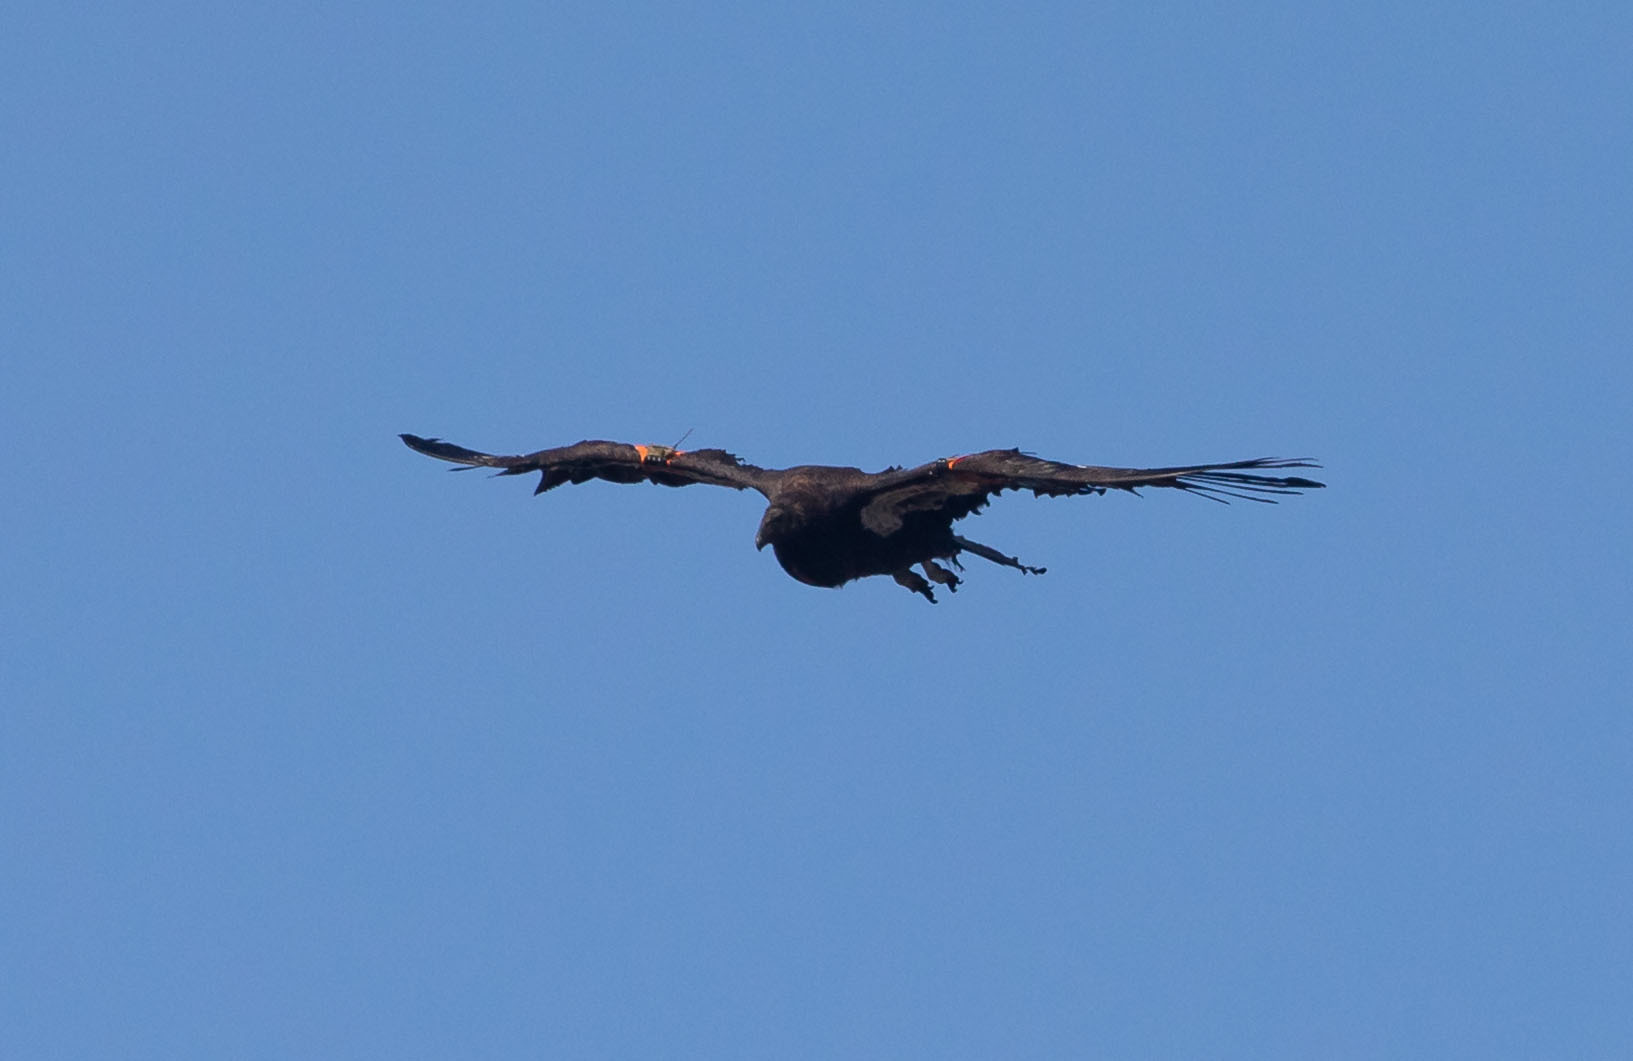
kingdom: Animalia
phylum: Chordata
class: Aves
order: Accipitriformes
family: Cathartidae
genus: Gymnogyps
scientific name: Gymnogyps californianus
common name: California condor
